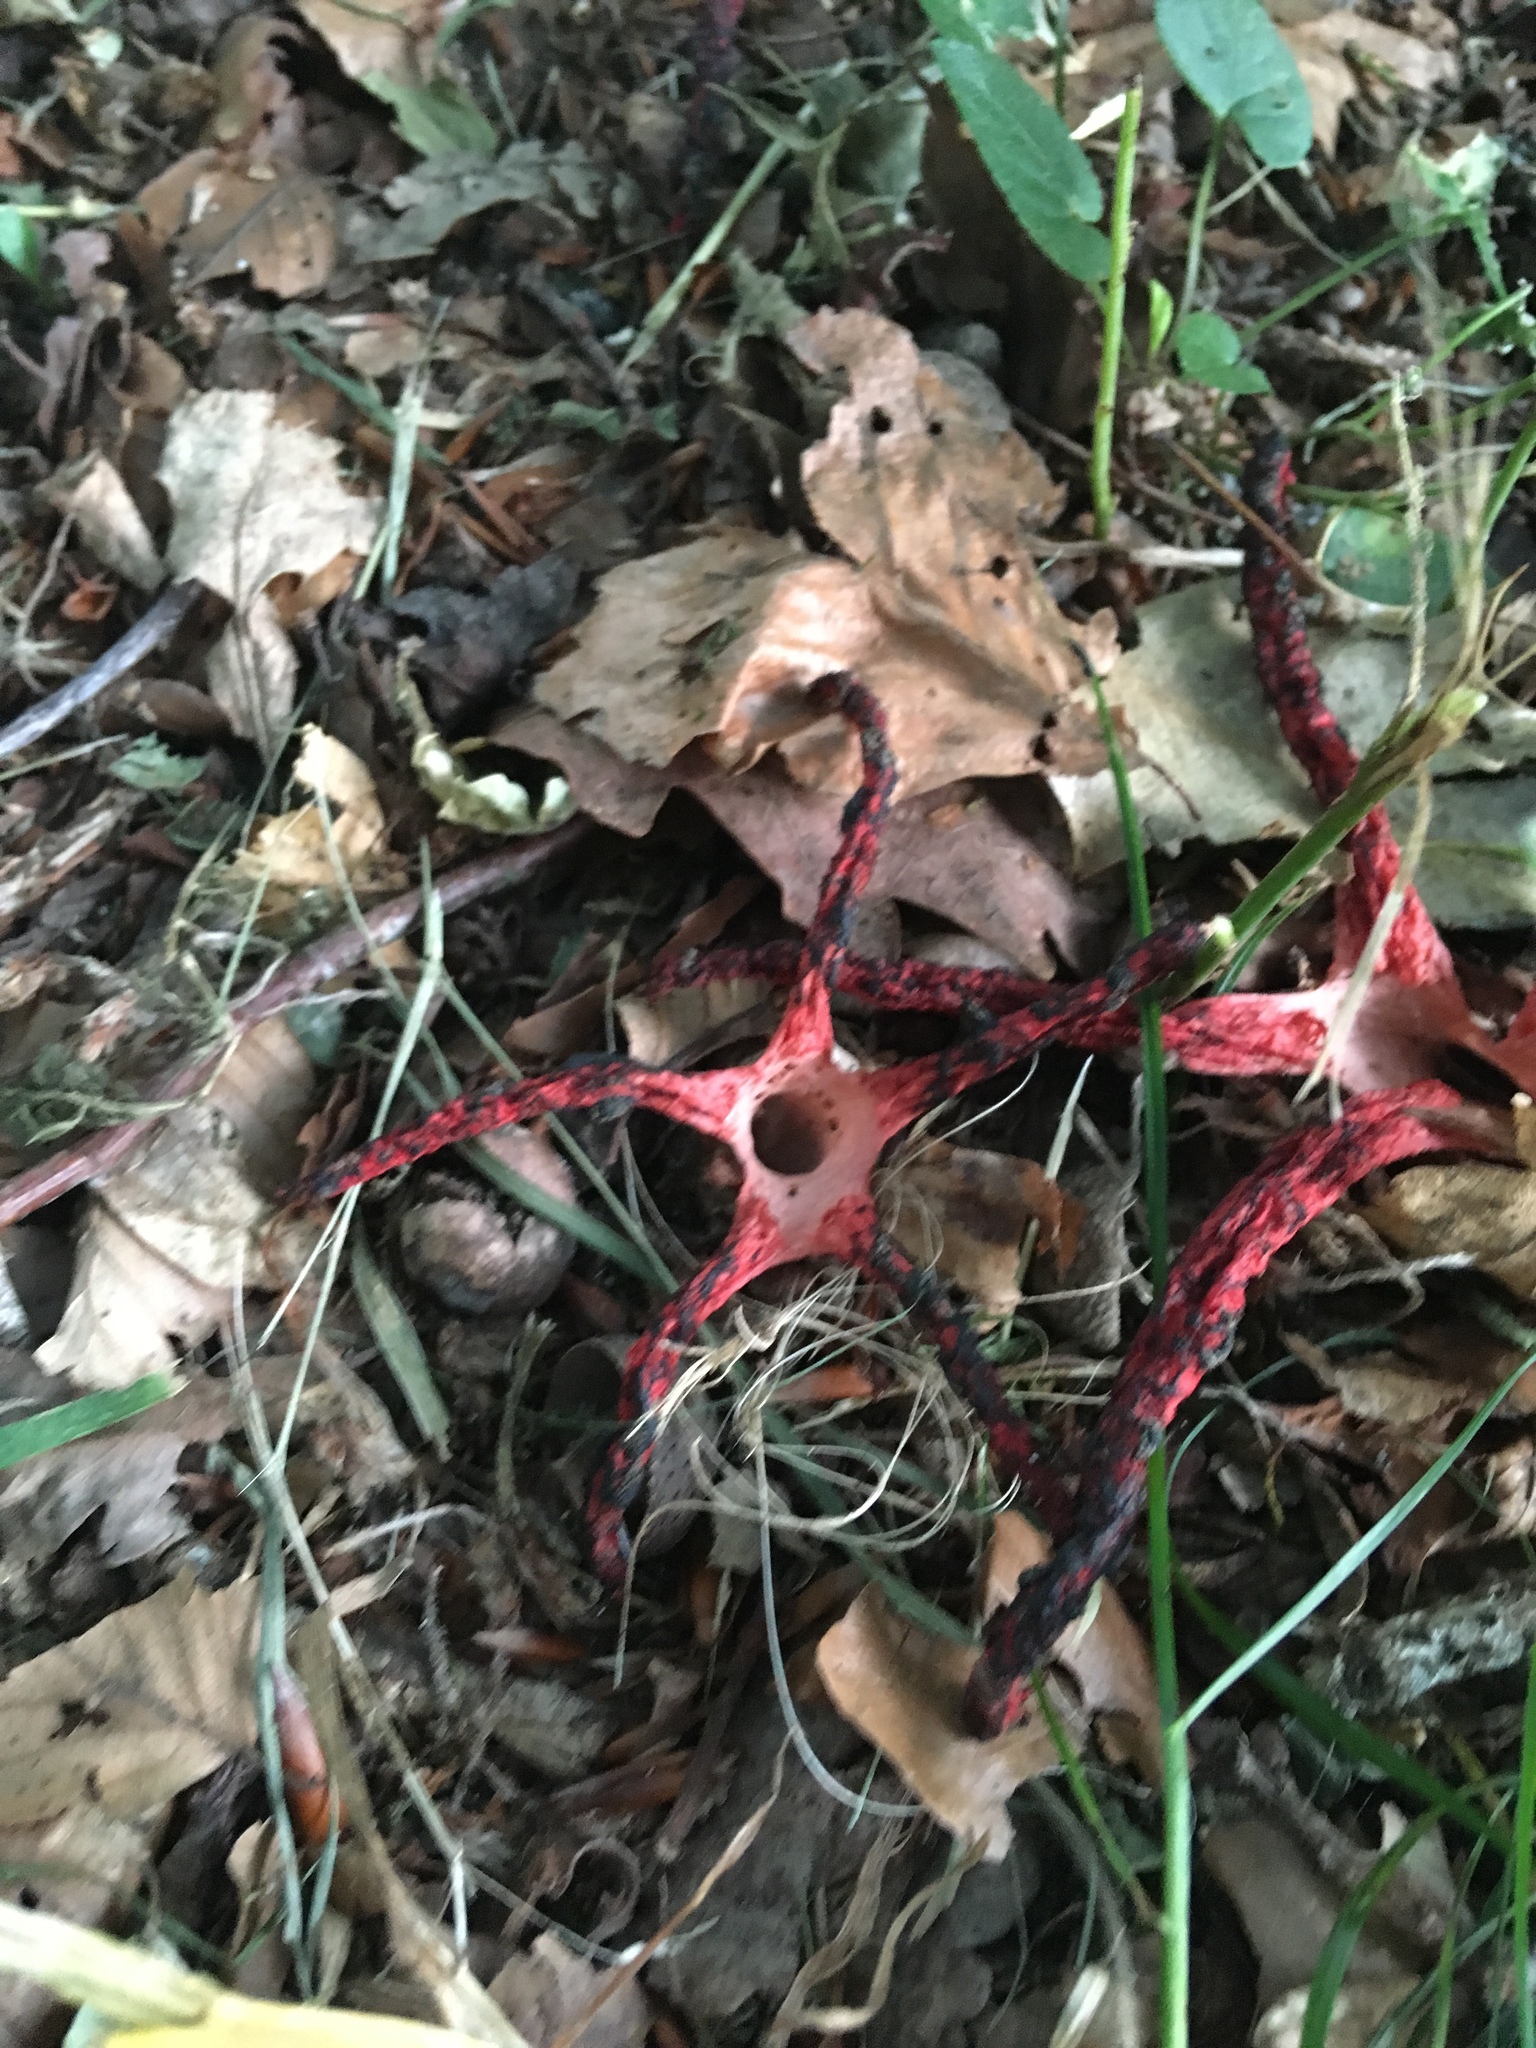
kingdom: Fungi
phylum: Basidiomycota
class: Agaricomycetes
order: Phallales
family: Phallaceae
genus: Clathrus
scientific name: Clathrus archeri
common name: Devil's fingers
